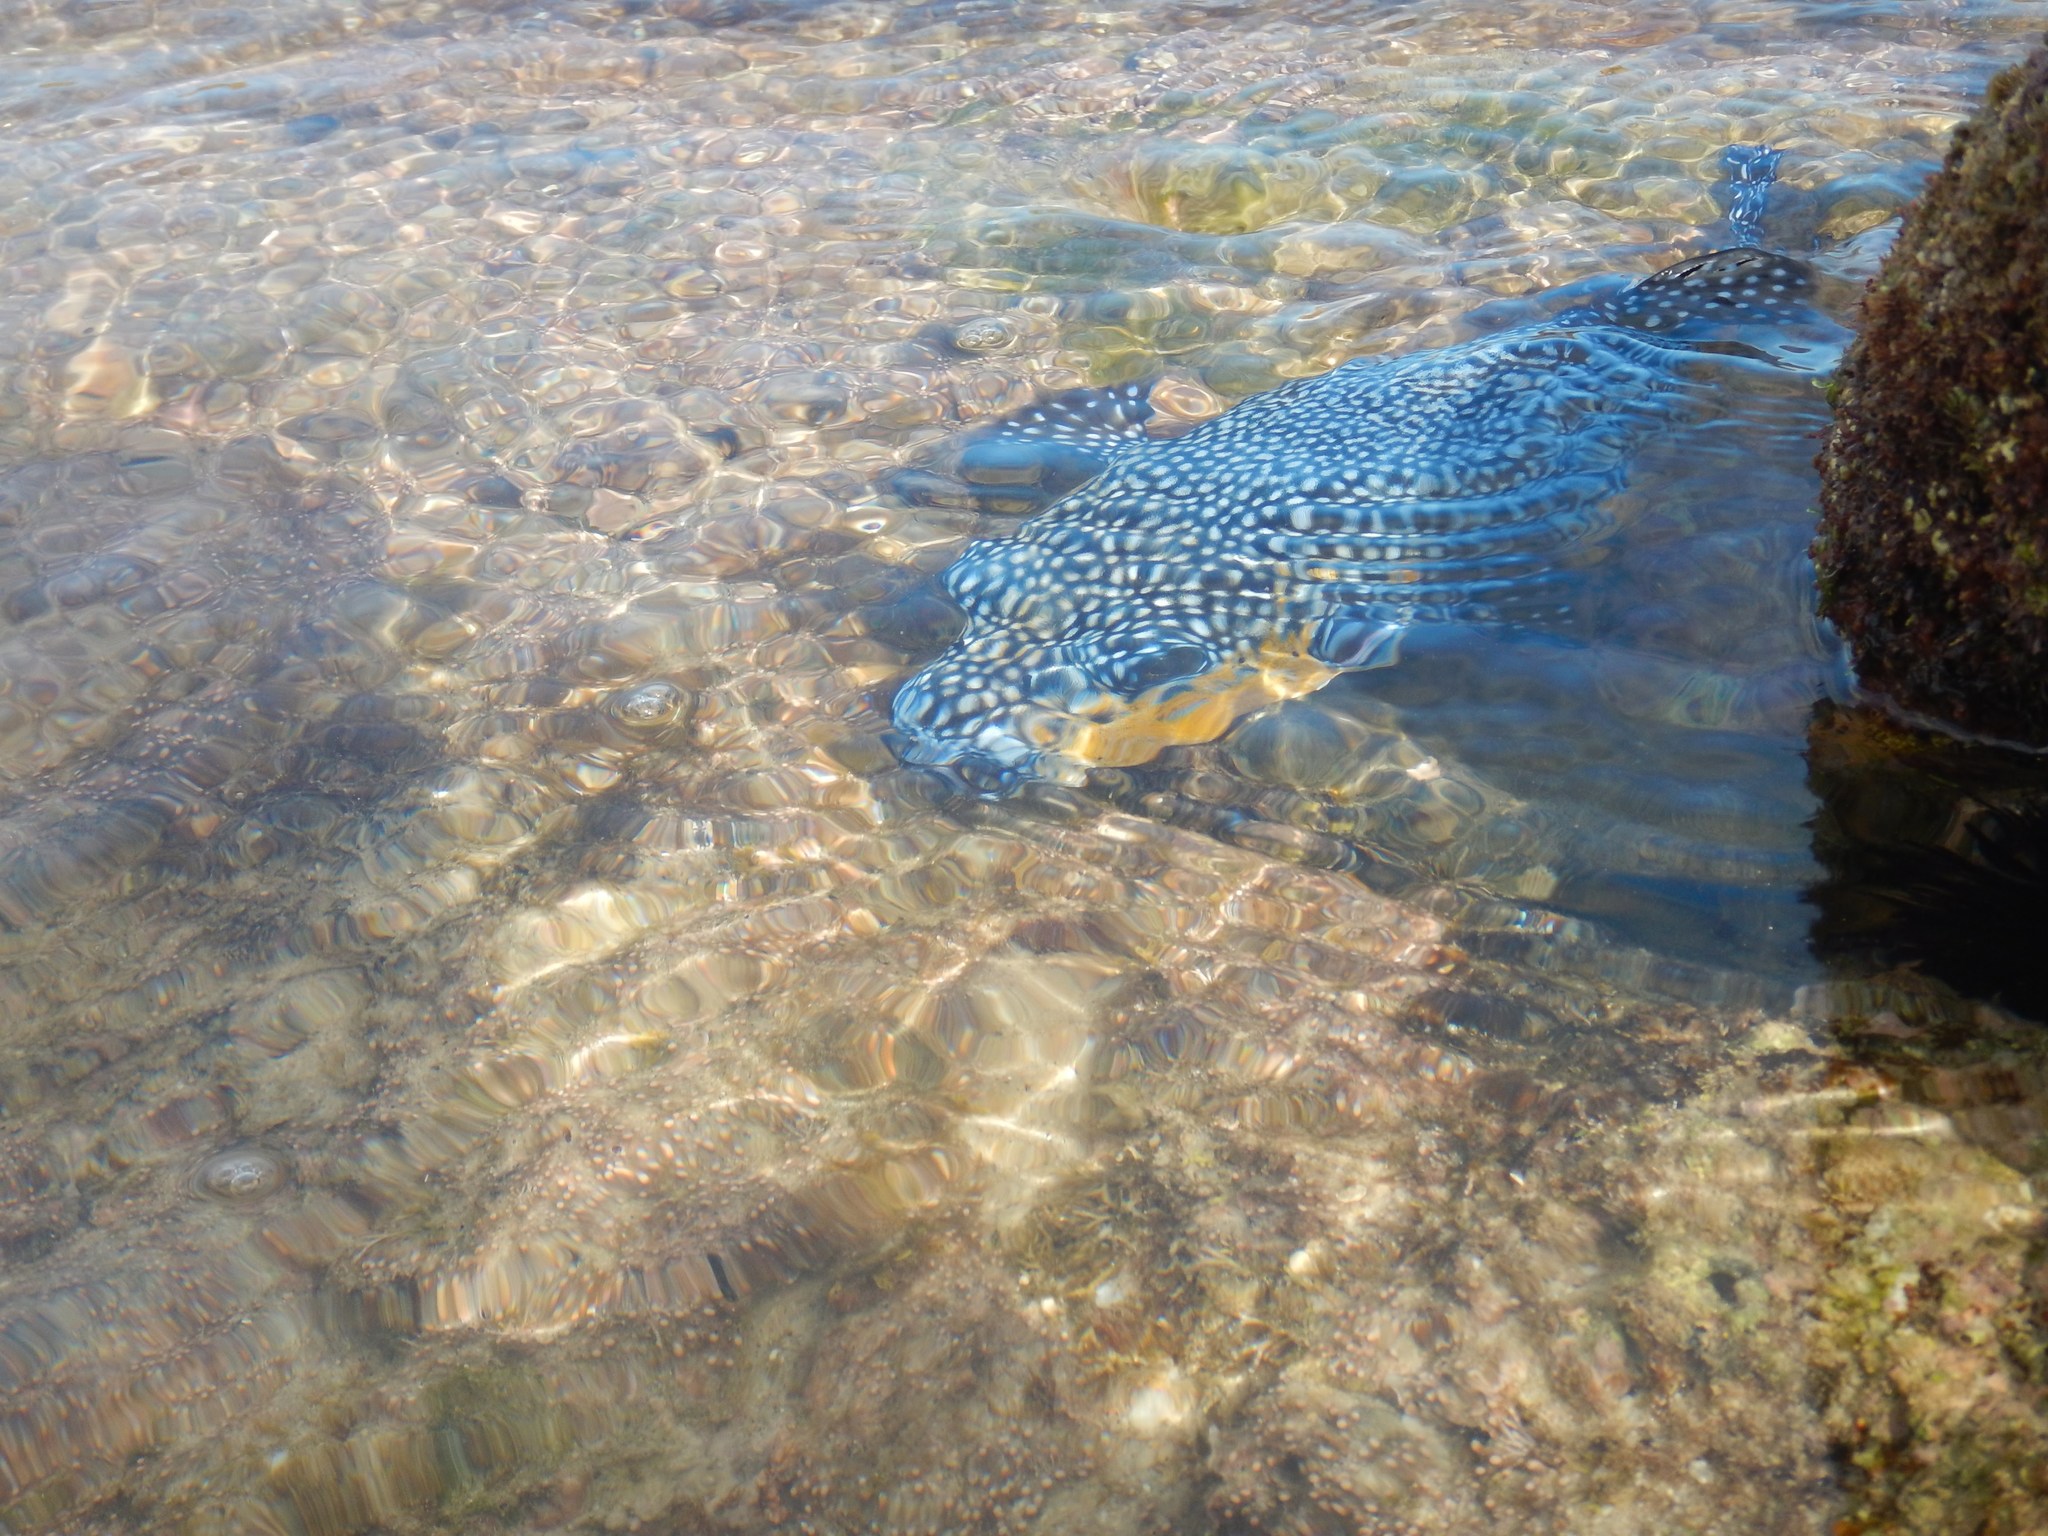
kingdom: Animalia
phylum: Chordata
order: Tetraodontiformes
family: Tetraodontidae
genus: Arothron
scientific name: Arothron meleagris
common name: Guinea-fowl pufferfish
